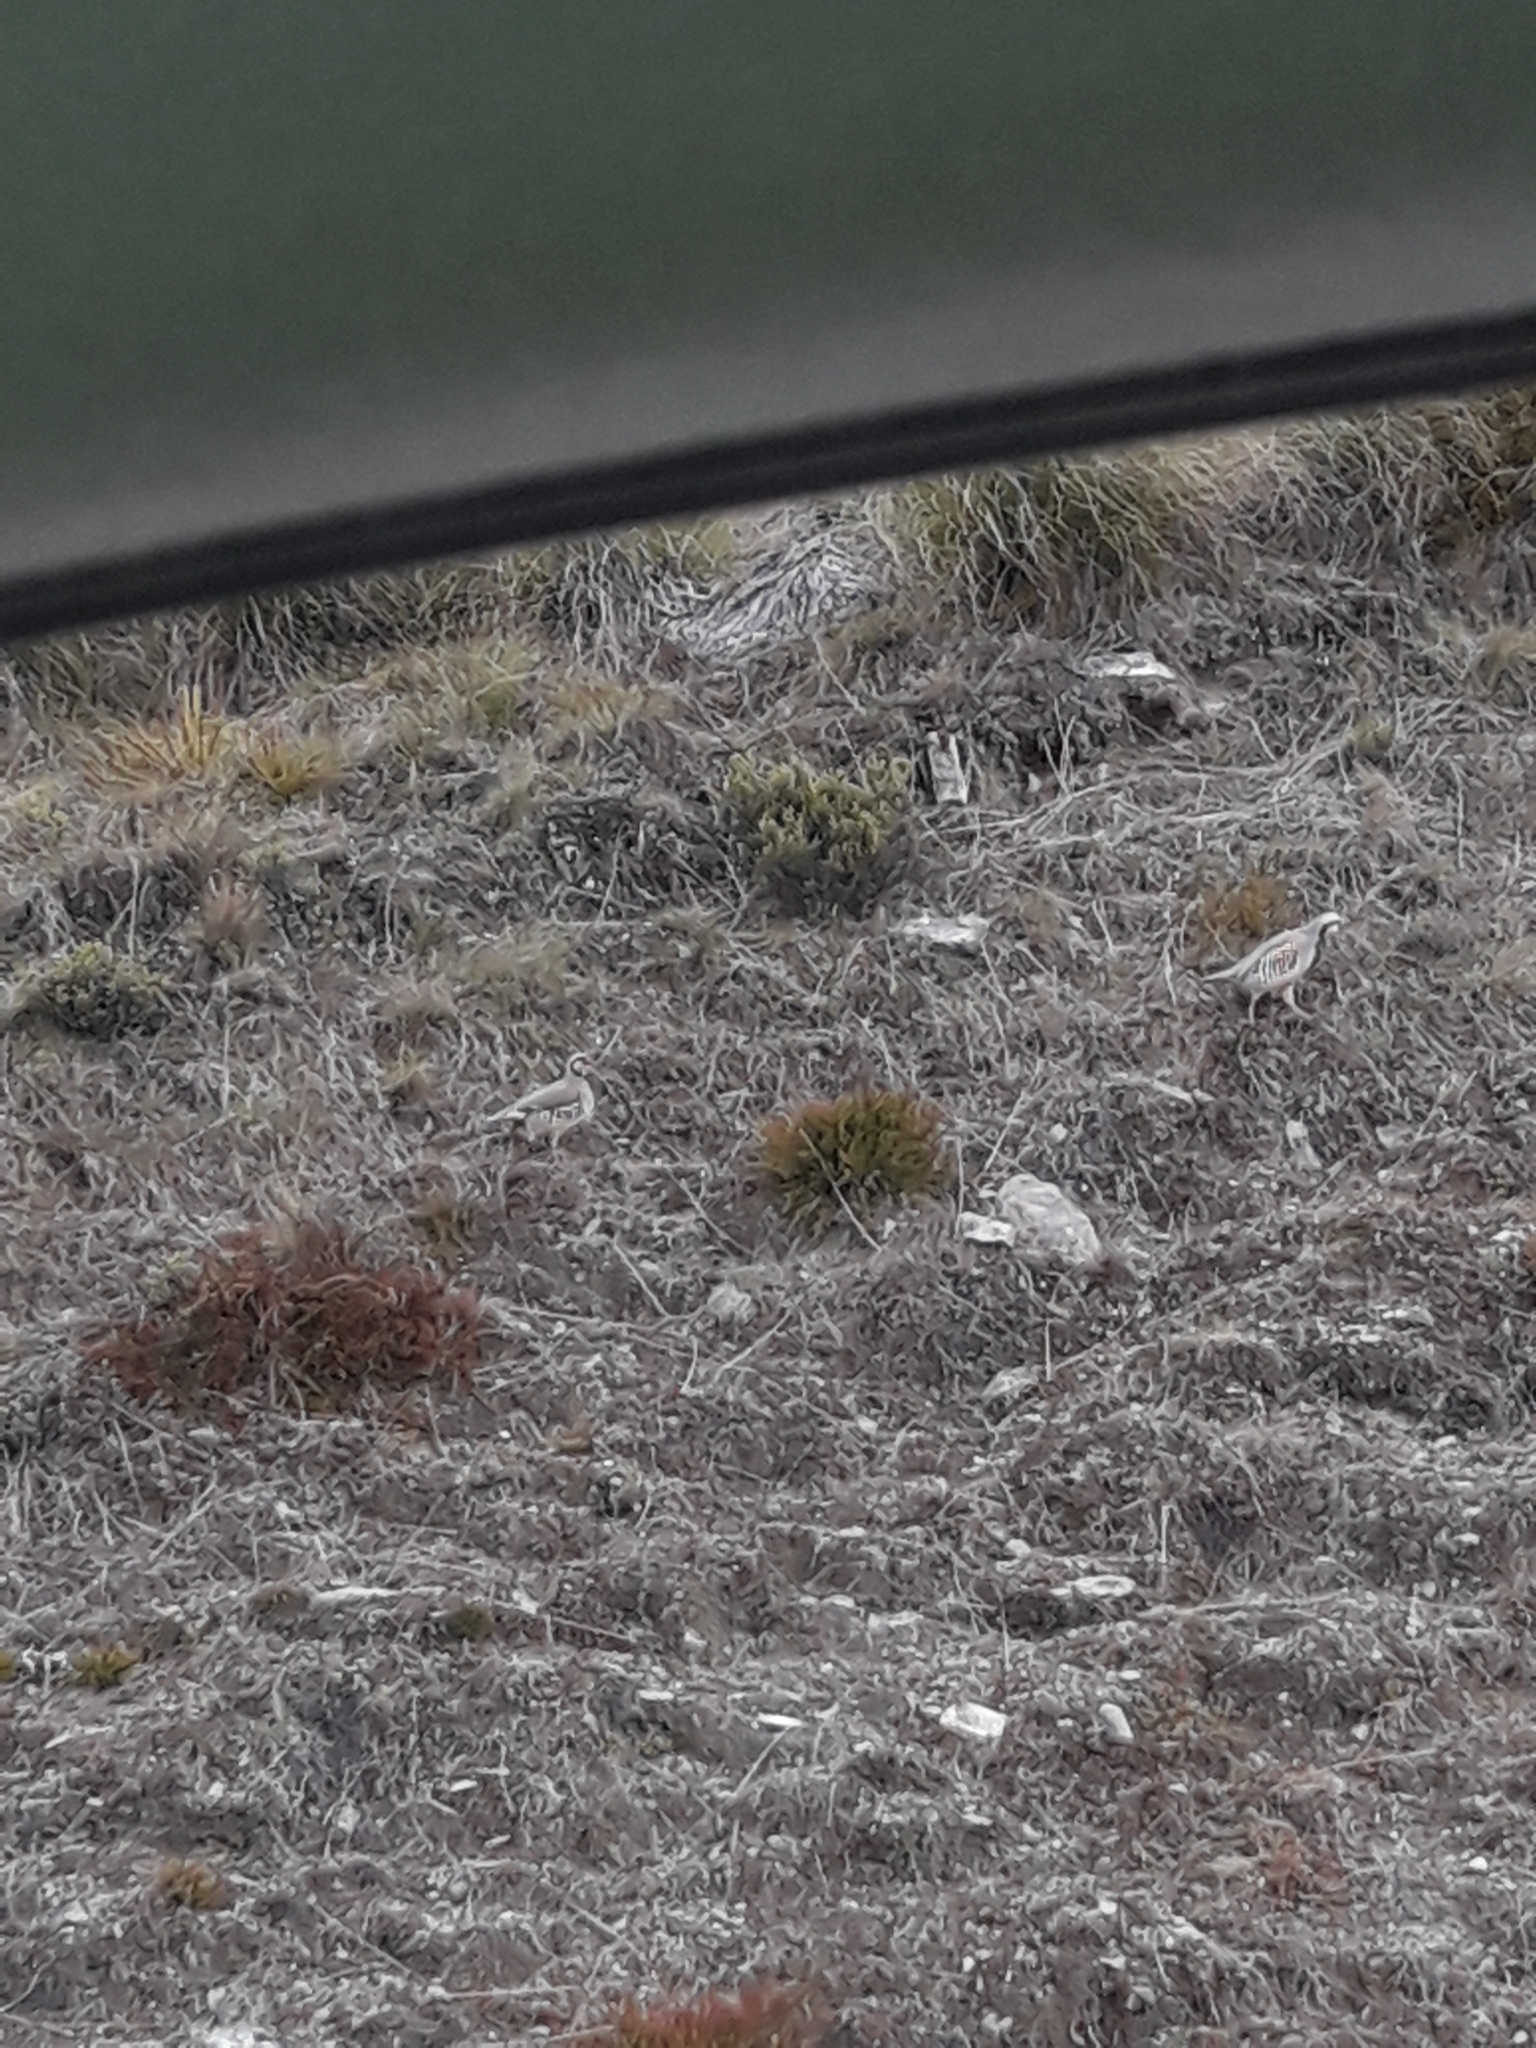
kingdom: Animalia
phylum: Chordata
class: Aves
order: Galliformes
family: Phasianidae
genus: Alectoris
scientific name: Alectoris chukar
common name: Chukar
